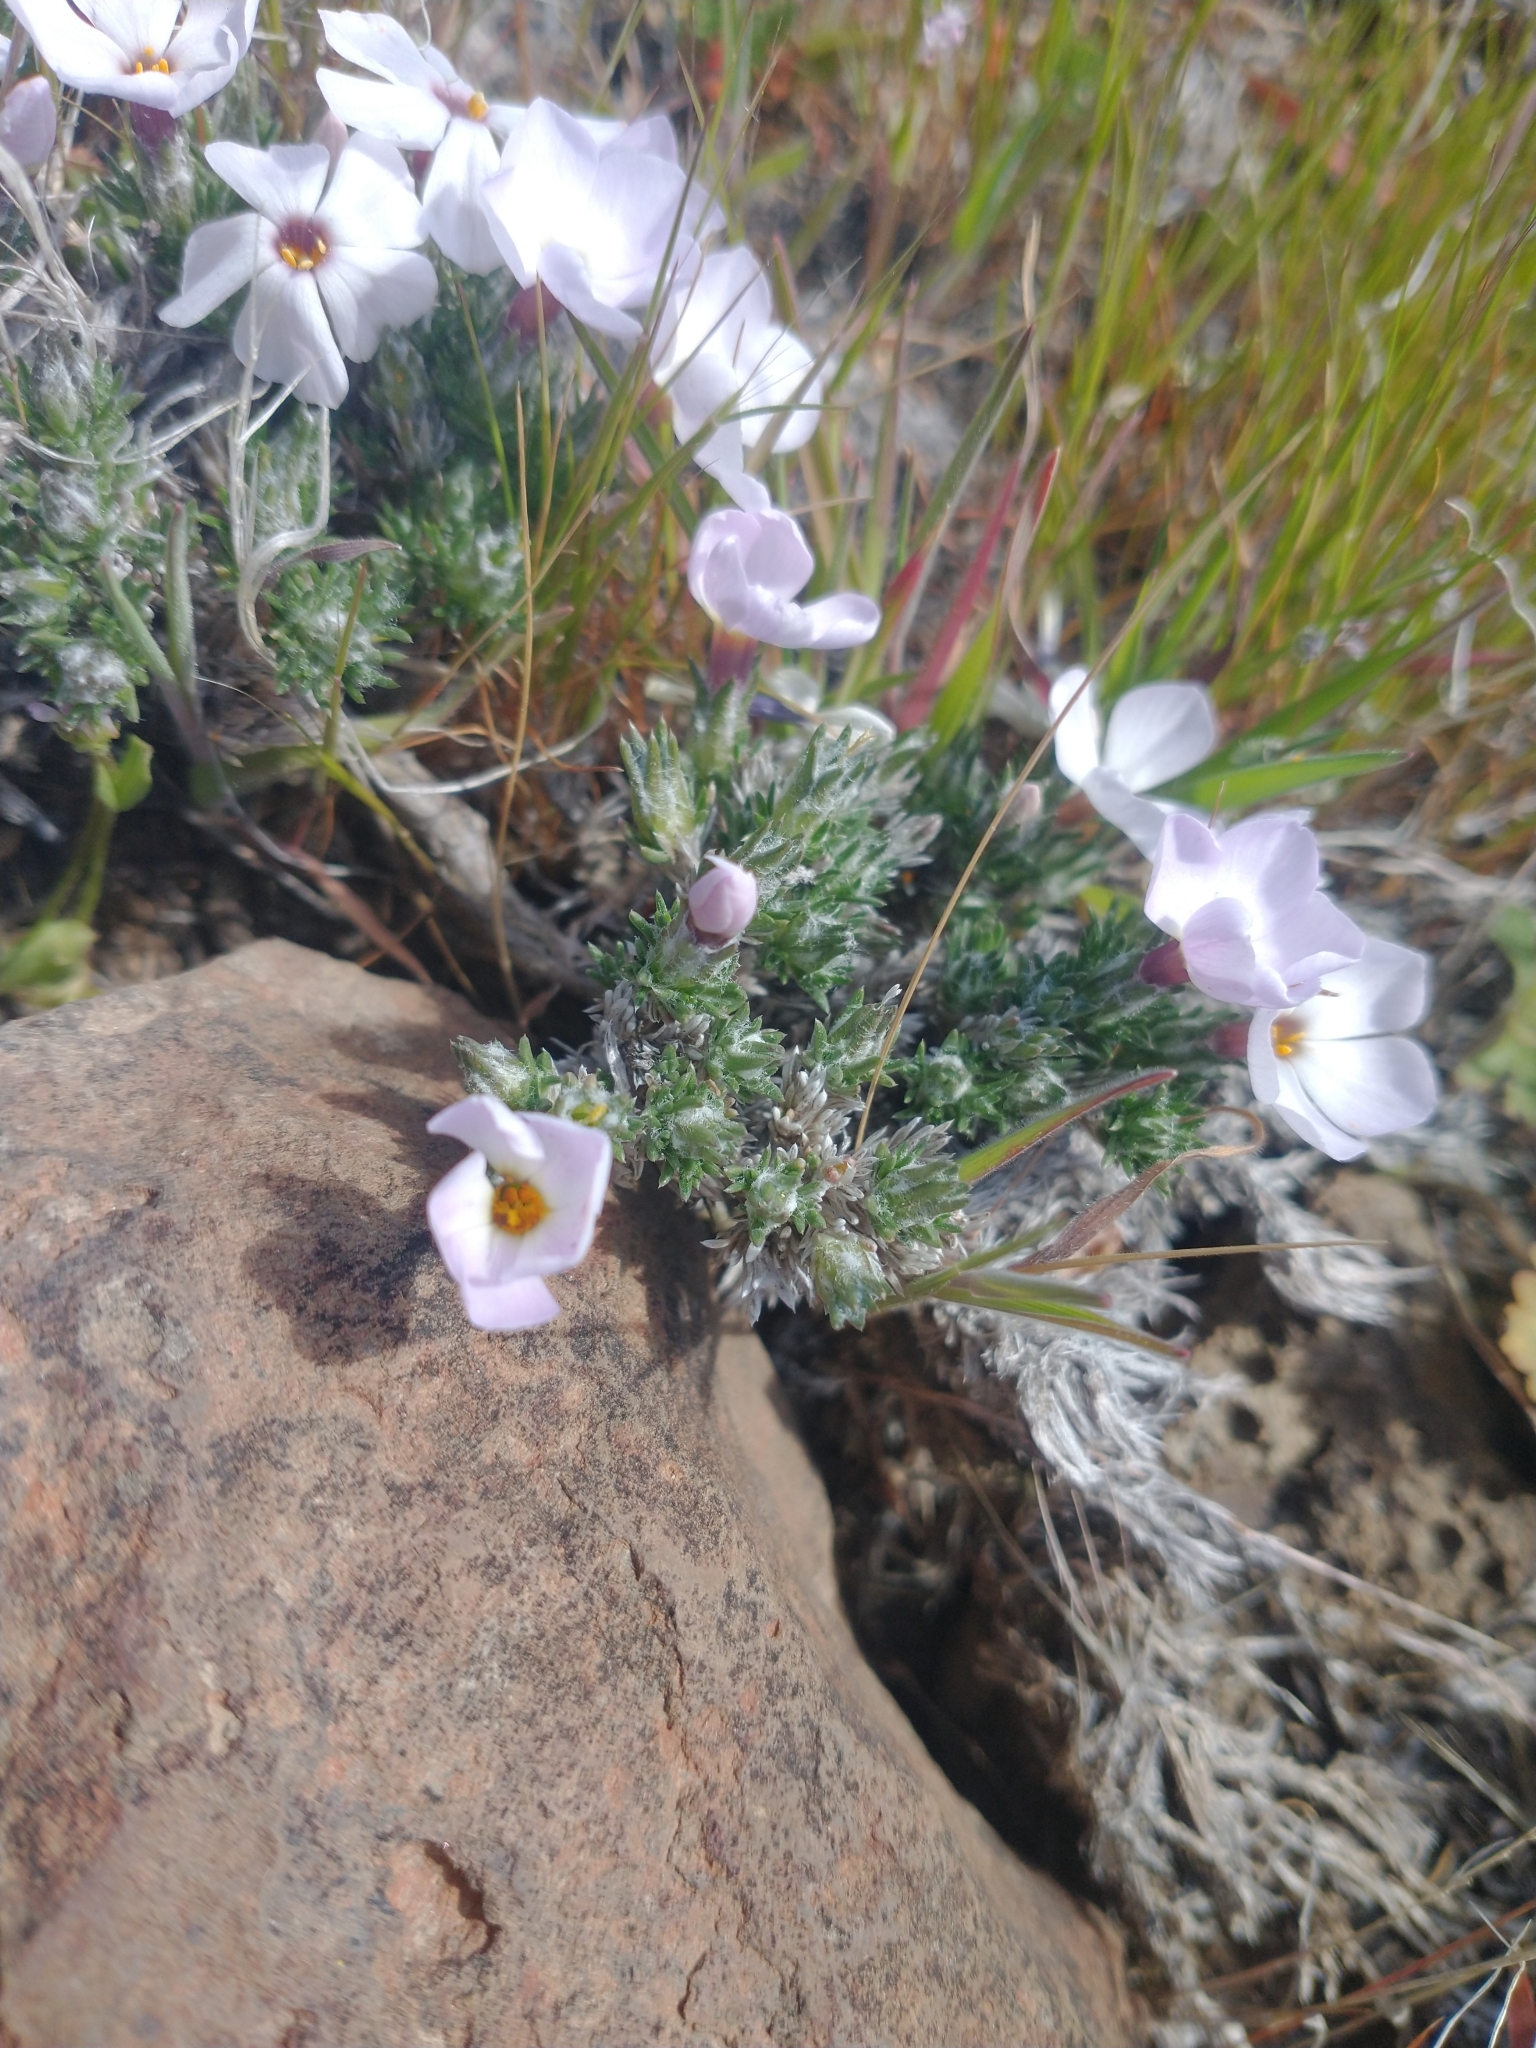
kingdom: Plantae
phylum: Tracheophyta
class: Magnoliopsida
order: Ericales
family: Polemoniaceae
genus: Phlox
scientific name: Phlox hoodii
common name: Moss phlox
